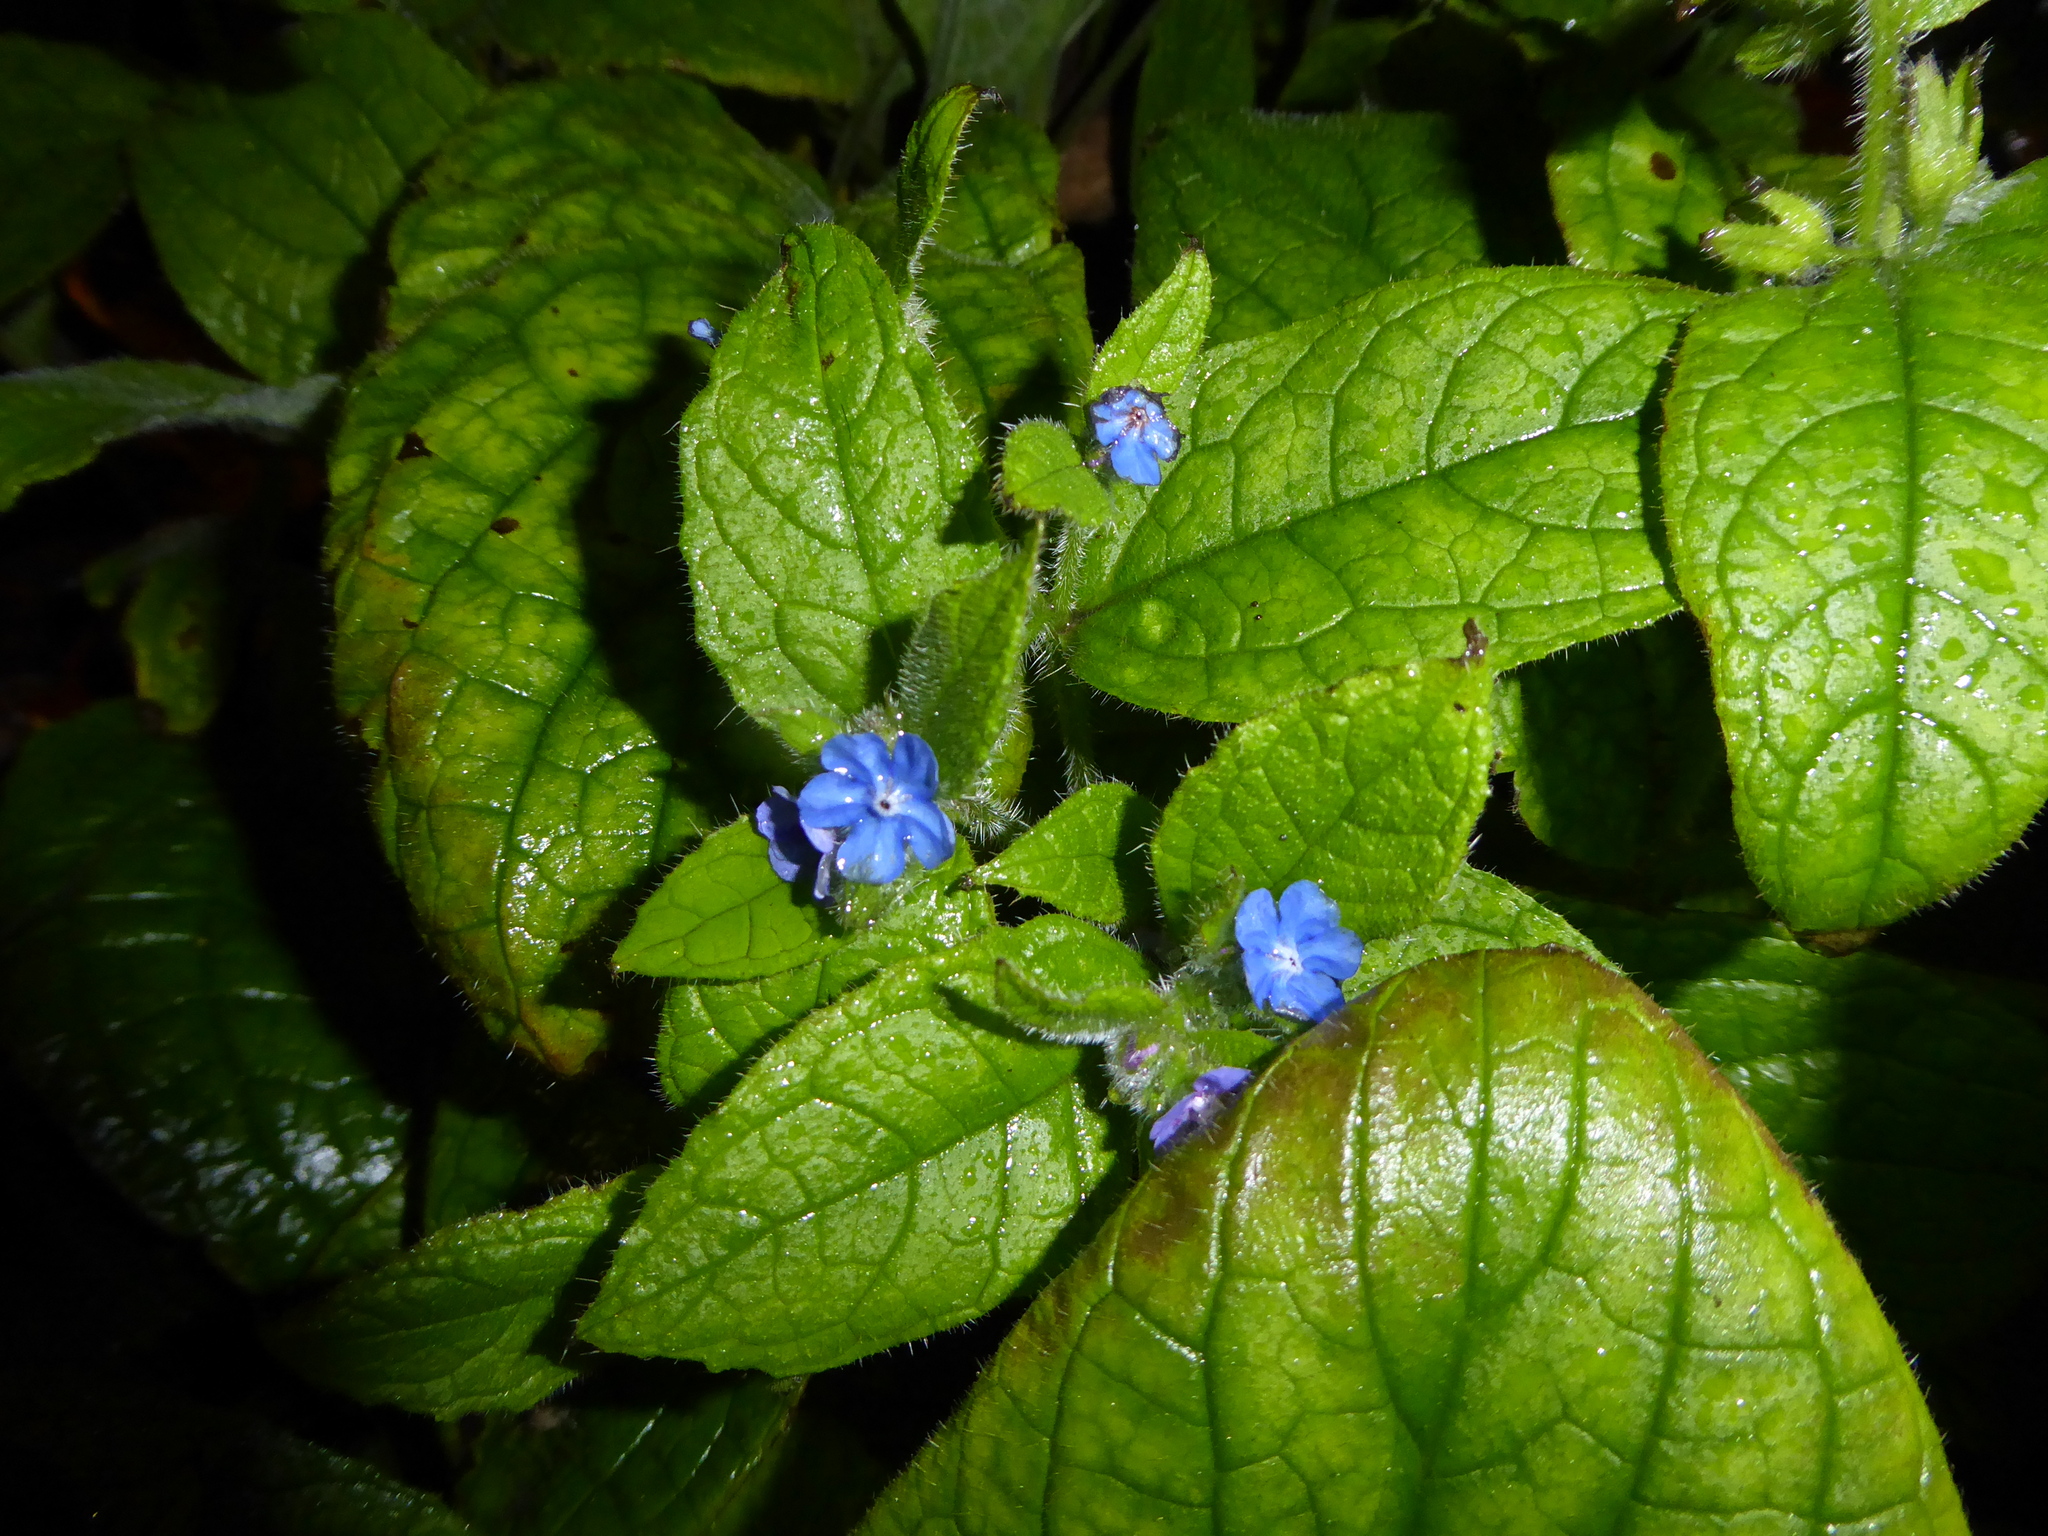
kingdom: Plantae
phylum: Tracheophyta
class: Magnoliopsida
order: Boraginales
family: Boraginaceae
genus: Pentaglottis
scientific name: Pentaglottis sempervirens
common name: Green alkanet
